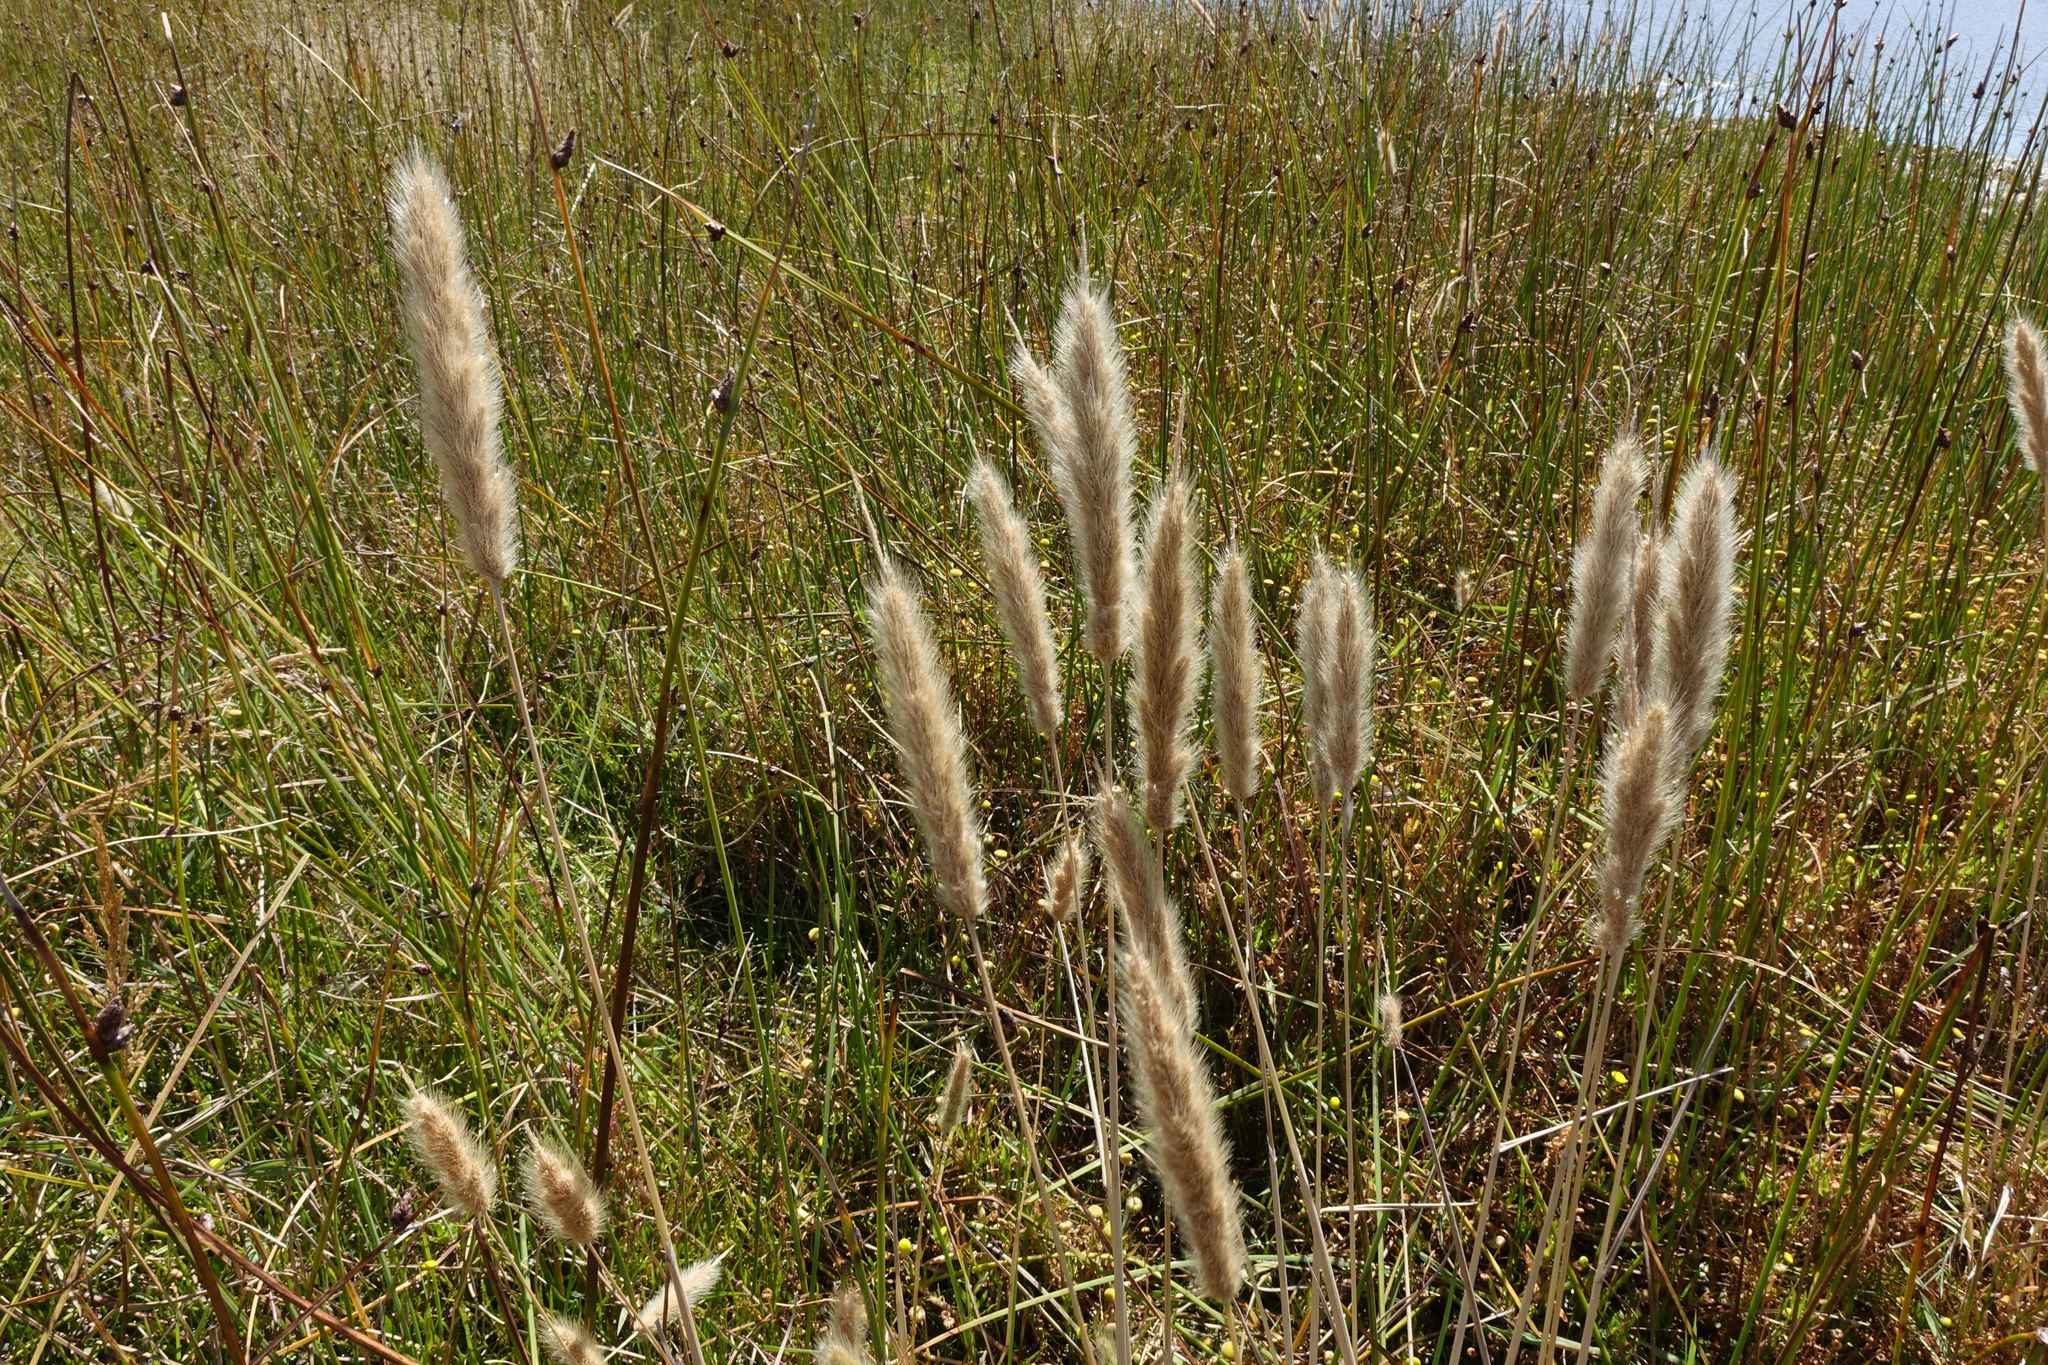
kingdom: Plantae
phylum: Tracheophyta
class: Liliopsida
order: Poales
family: Poaceae
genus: Polypogon
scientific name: Polypogon monspeliensis
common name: Annual rabbitsfoot grass
